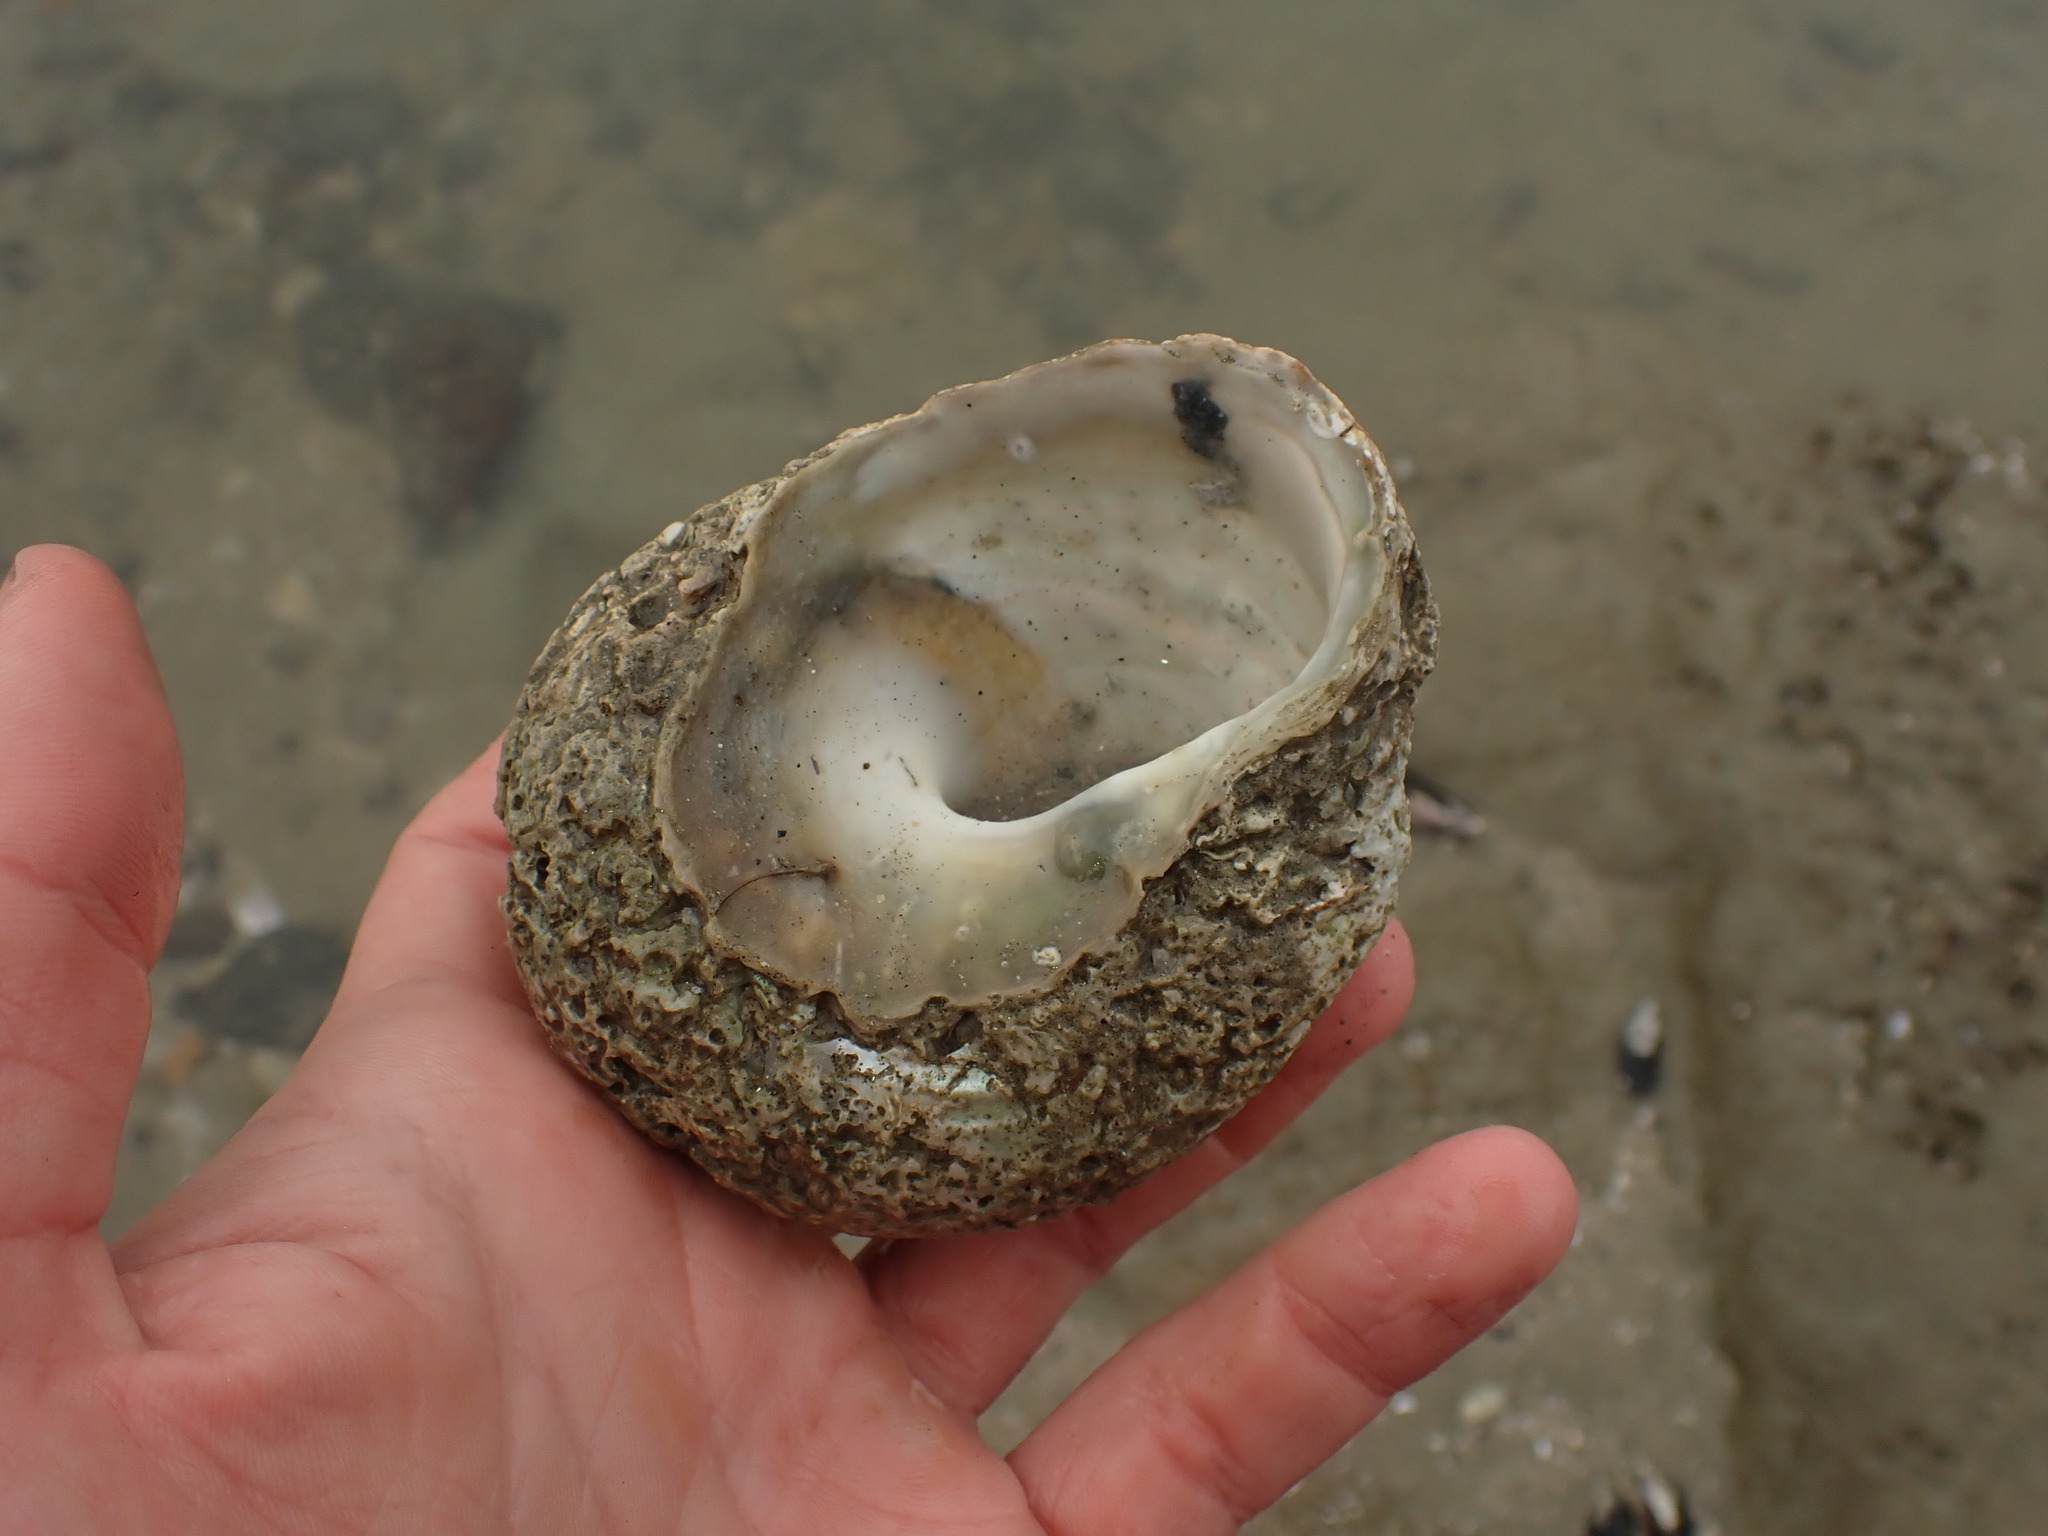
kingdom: Animalia
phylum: Mollusca
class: Gastropoda
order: Trochida
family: Turbinidae
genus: Cookia
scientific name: Cookia sulcata
